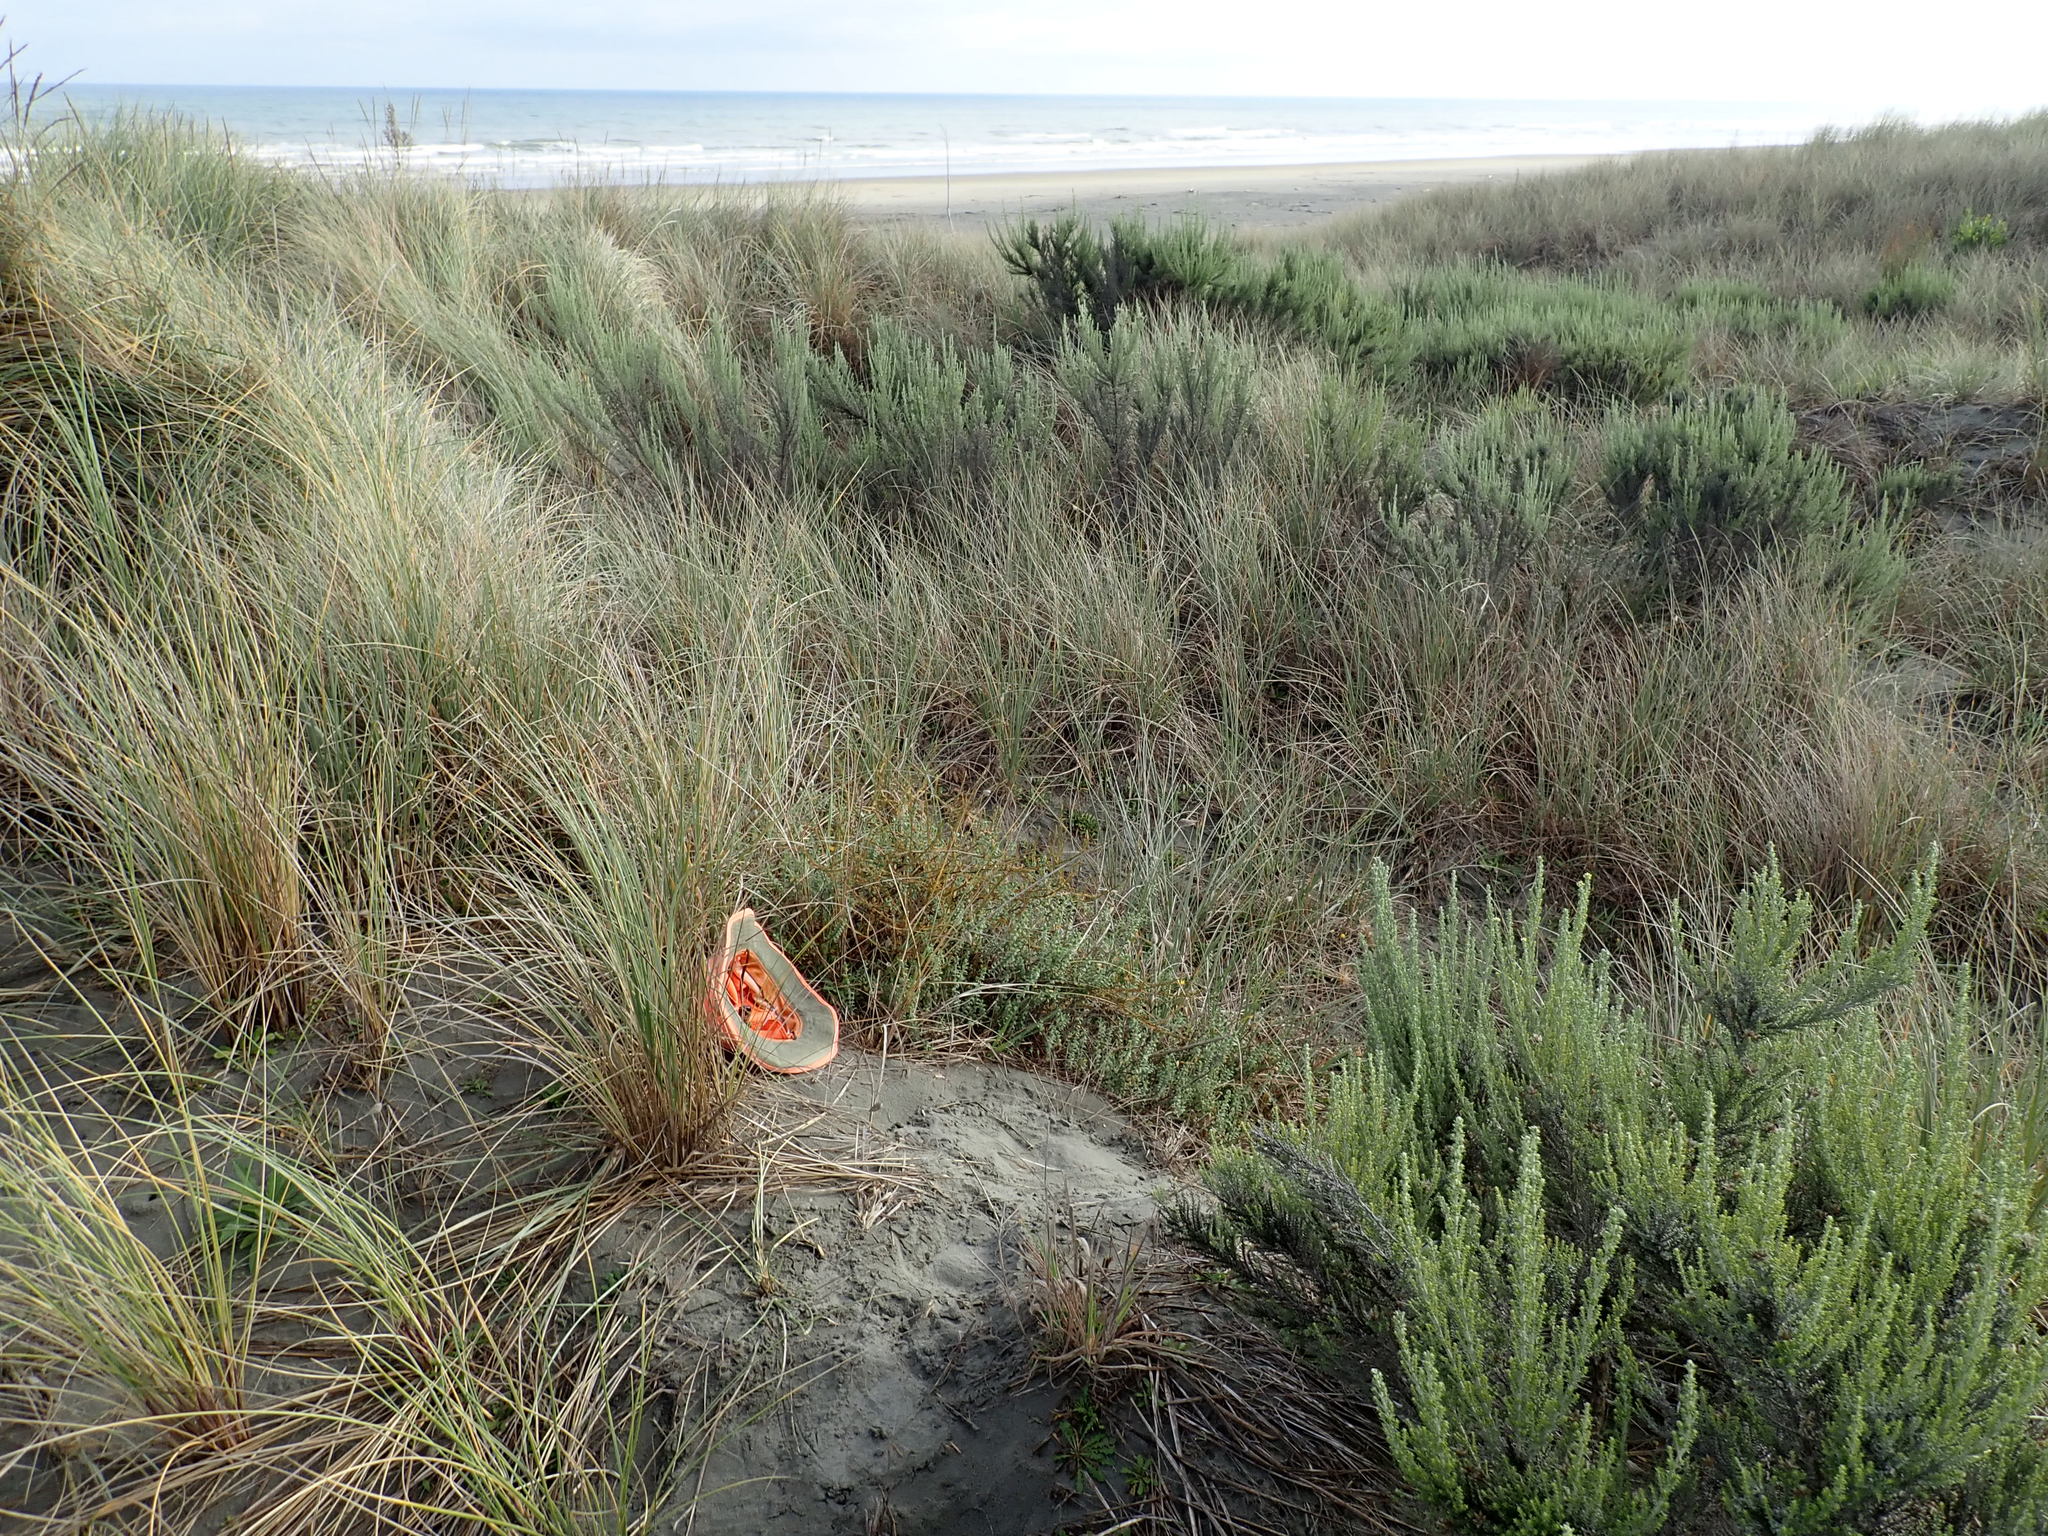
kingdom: Plantae
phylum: Tracheophyta
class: Magnoliopsida
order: Malvales
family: Thymelaeaceae
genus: Pimelea
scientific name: Pimelea villosa
